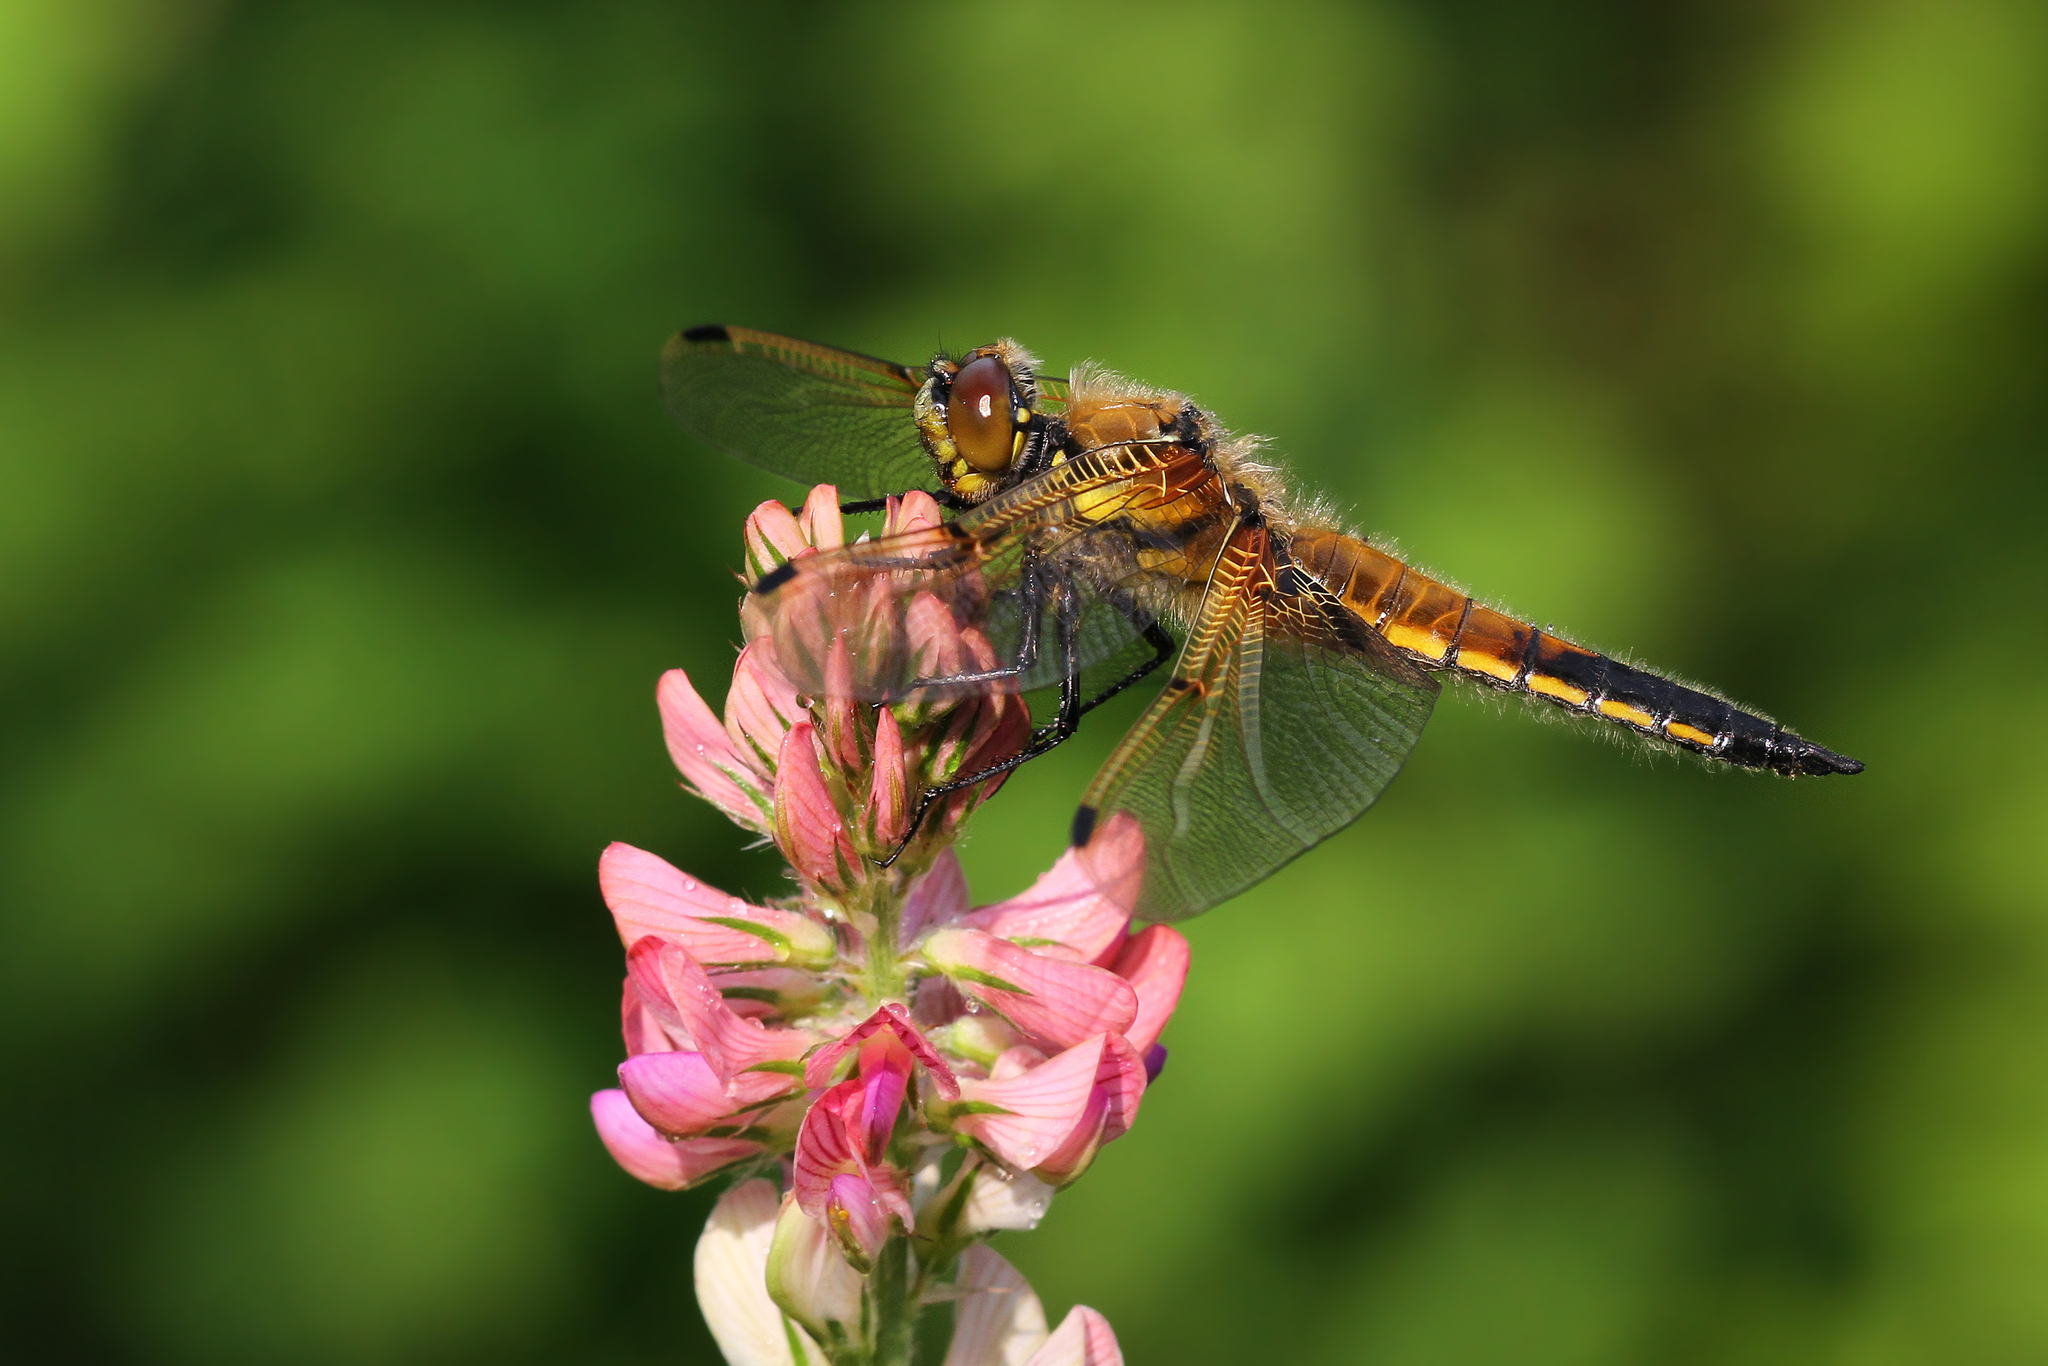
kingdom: Animalia
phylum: Arthropoda
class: Insecta
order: Odonata
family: Libellulidae
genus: Libellula
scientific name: Libellula quadrimaculata
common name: Four-spotted chaser
